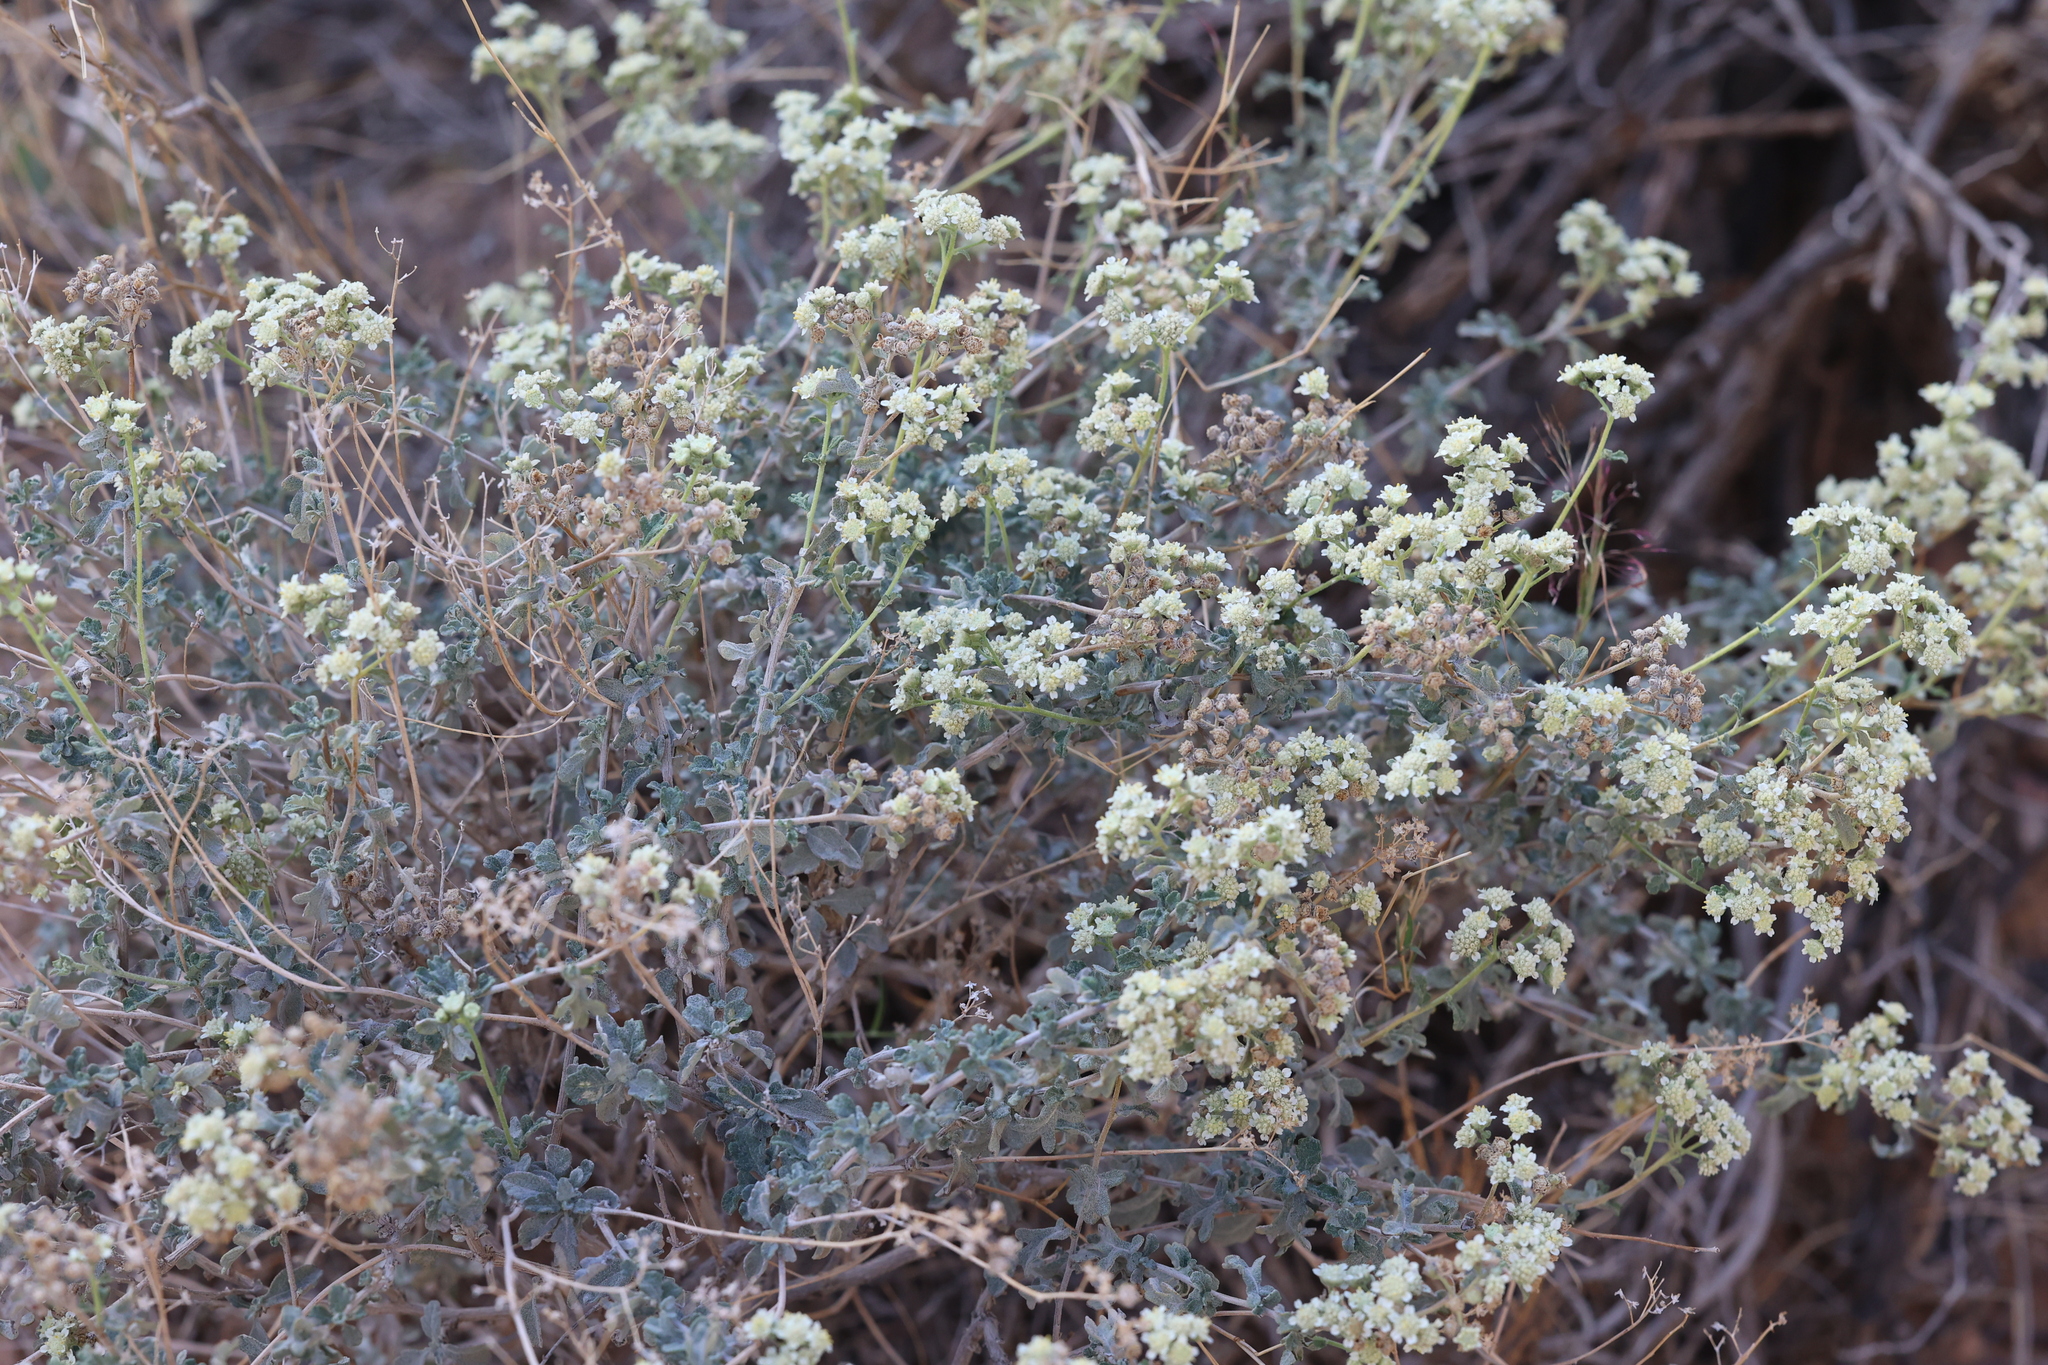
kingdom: Plantae
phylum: Tracheophyta
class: Magnoliopsida
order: Asterales
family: Asteraceae
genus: Parthenium
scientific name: Parthenium incanum
